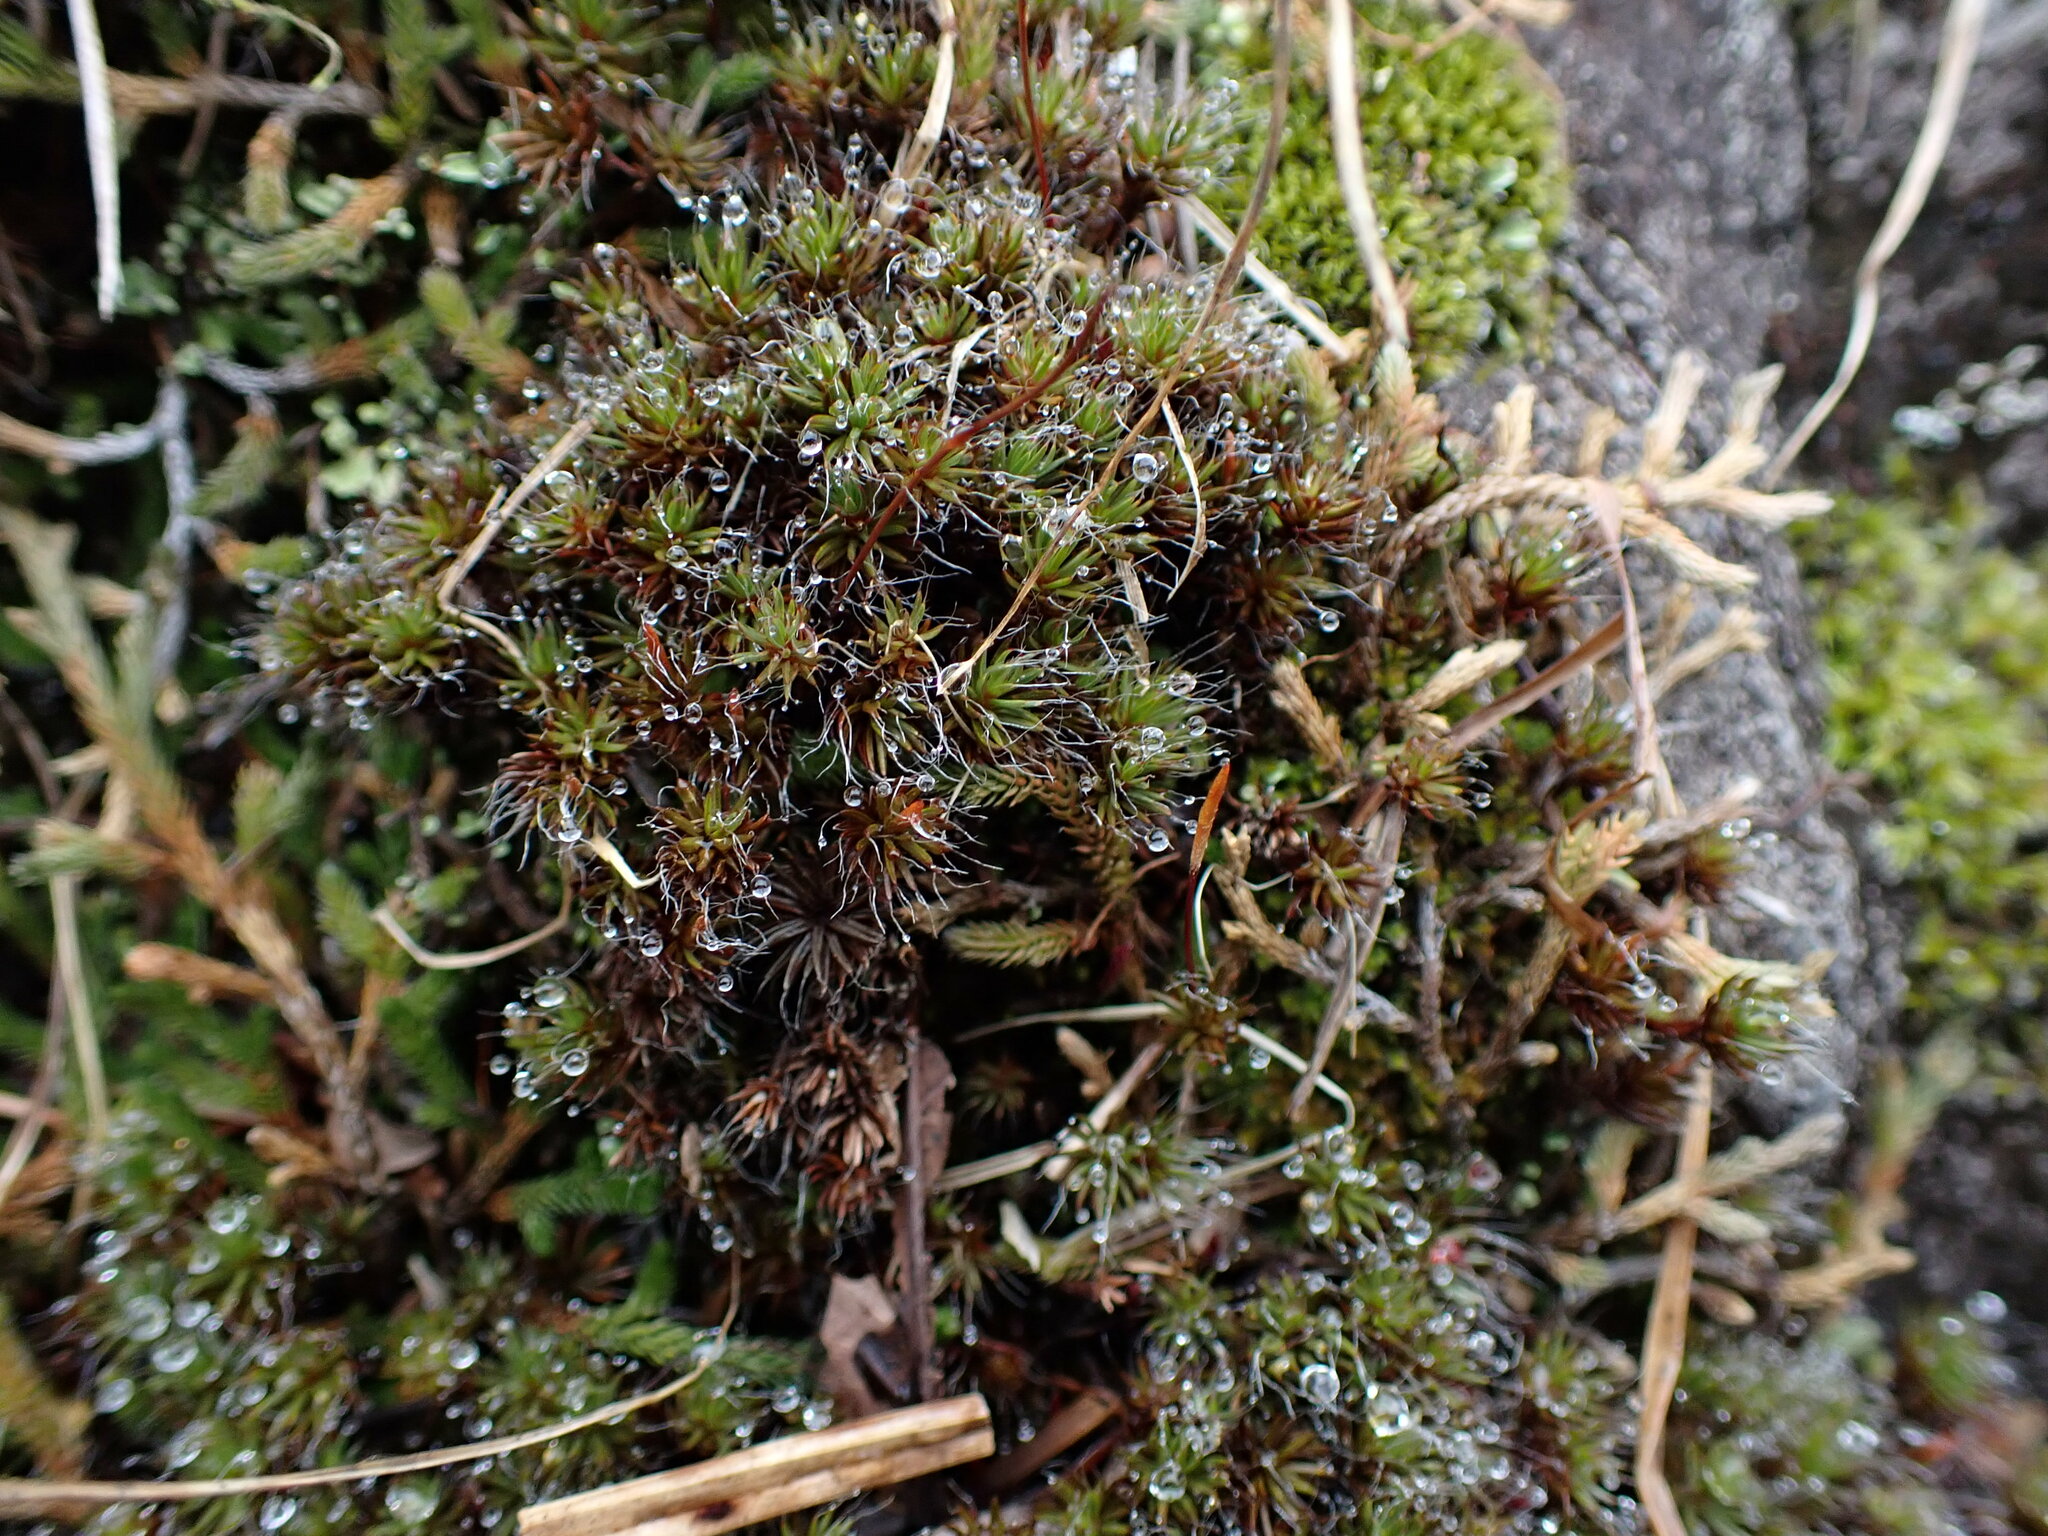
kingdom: Plantae
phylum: Bryophyta
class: Polytrichopsida
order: Polytrichales
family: Polytrichaceae
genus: Polytrichum
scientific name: Polytrichum piliferum
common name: Bristly haircap
